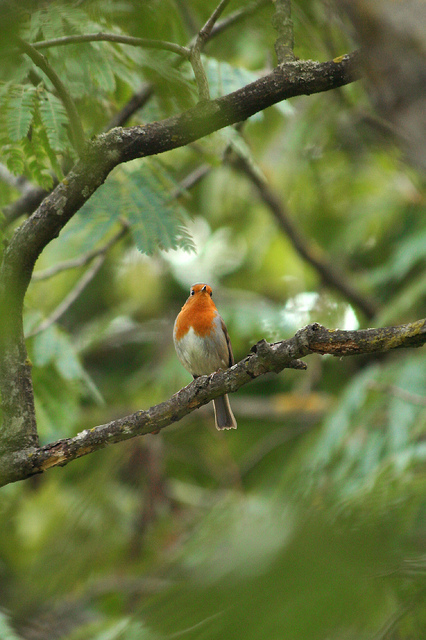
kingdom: Animalia
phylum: Chordata
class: Aves
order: Passeriformes
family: Muscicapidae
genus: Erithacus
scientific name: Erithacus rubecula
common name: European robin
